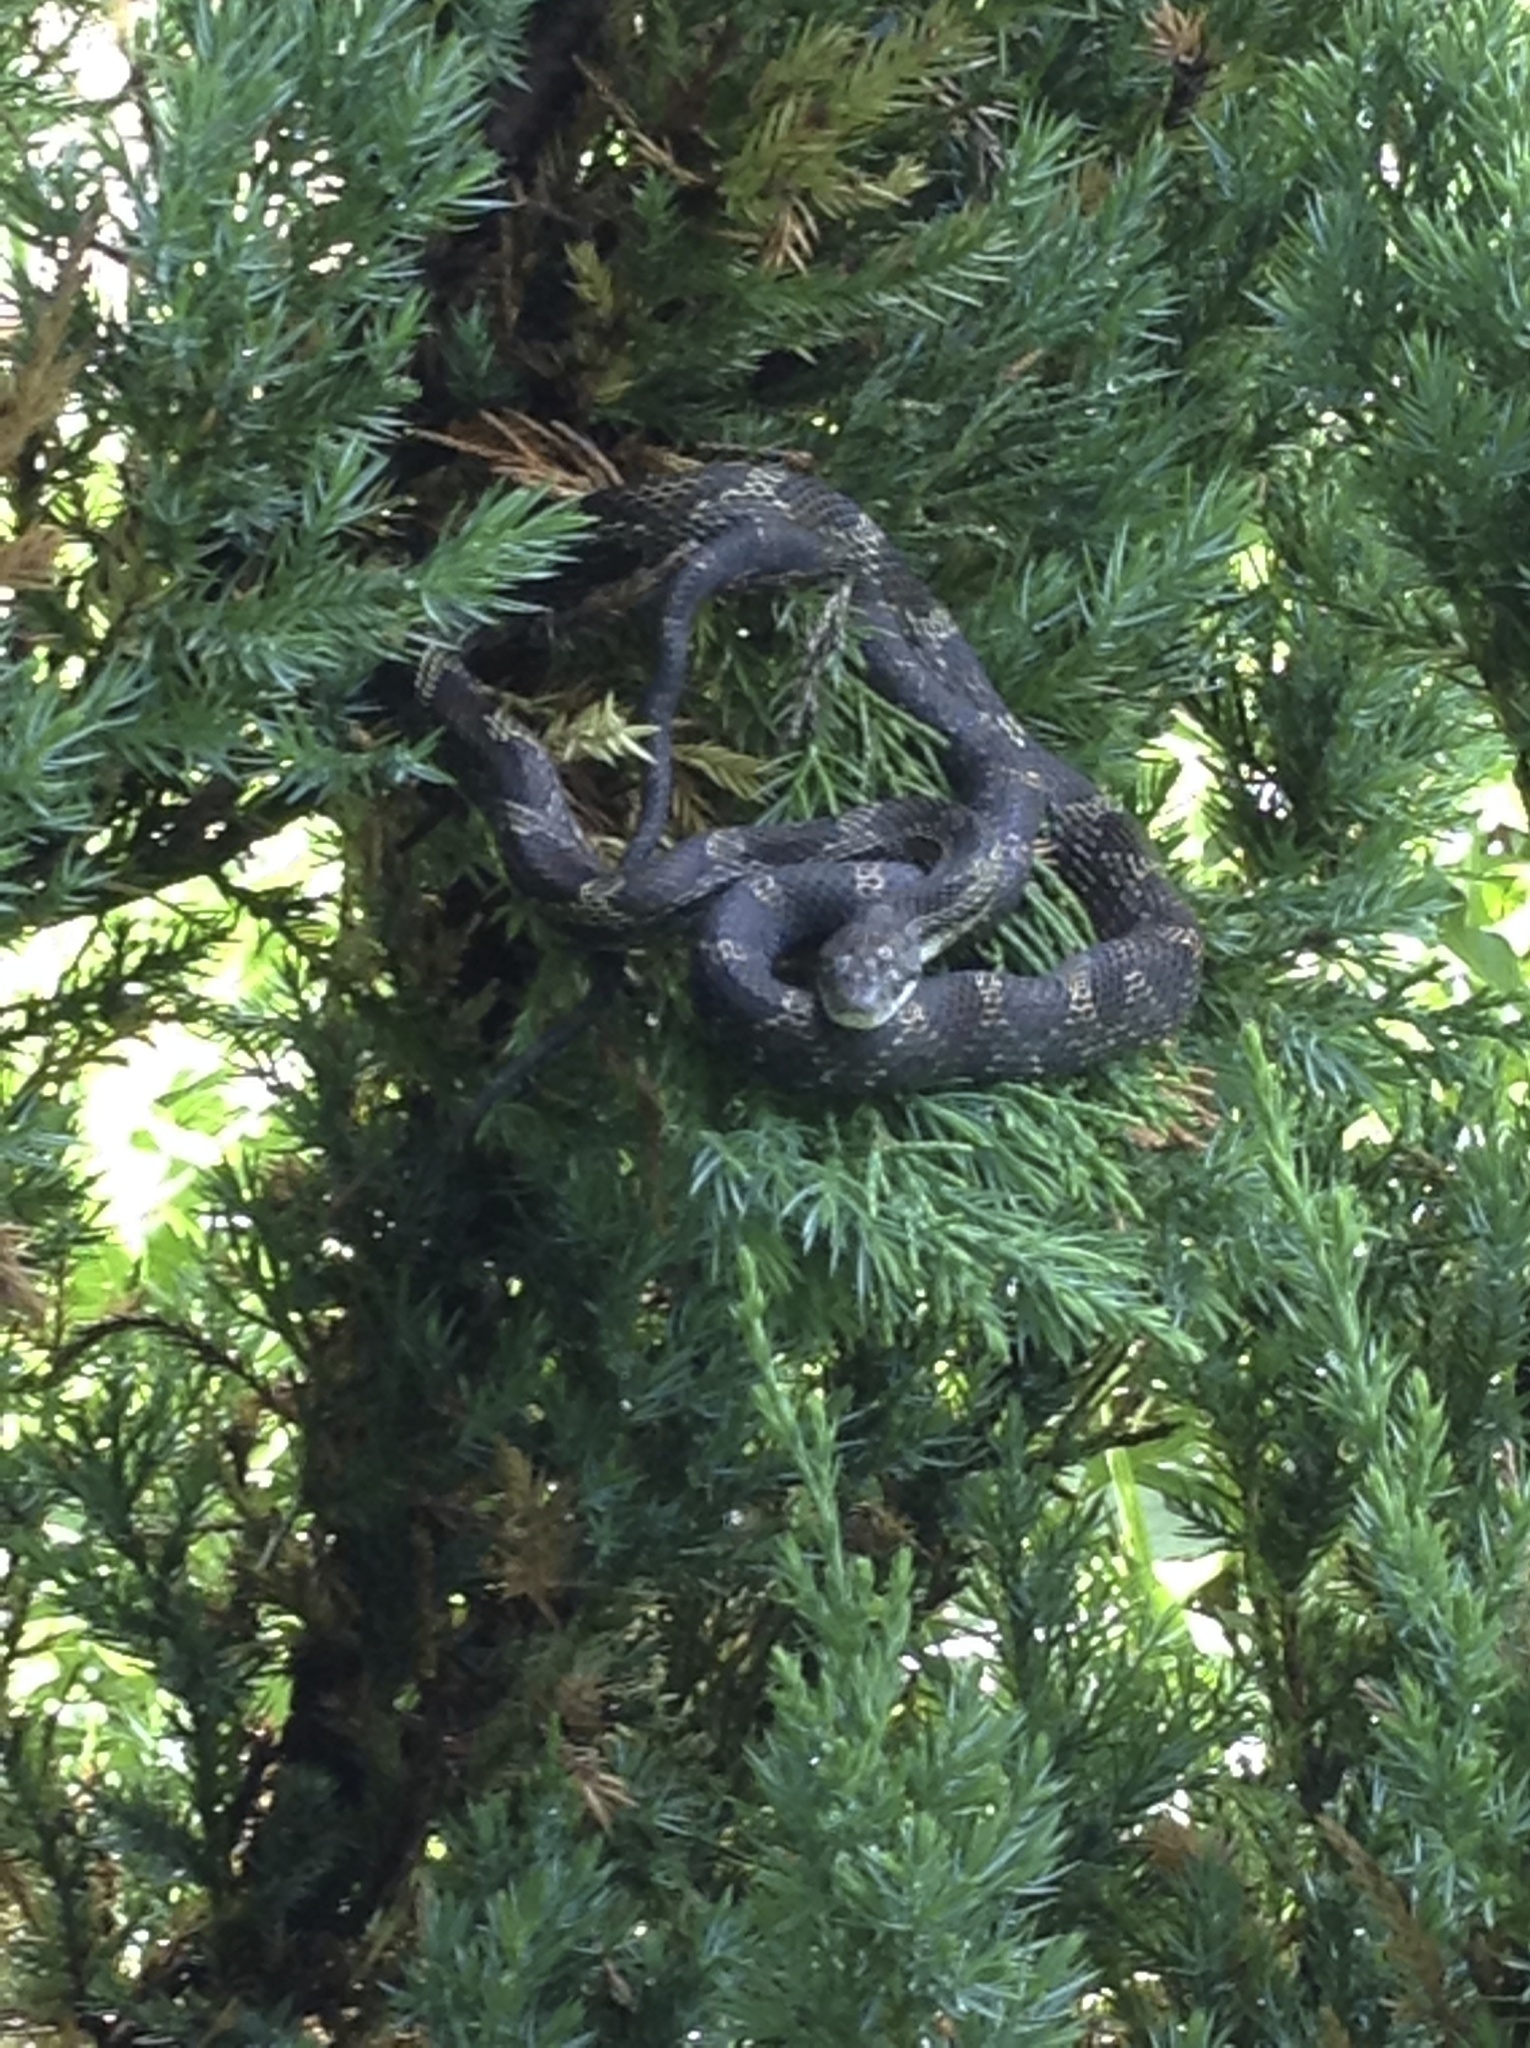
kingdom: Animalia
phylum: Chordata
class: Squamata
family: Colubridae
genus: Pantherophis
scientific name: Pantherophis spiloides
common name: Gray rat snake
